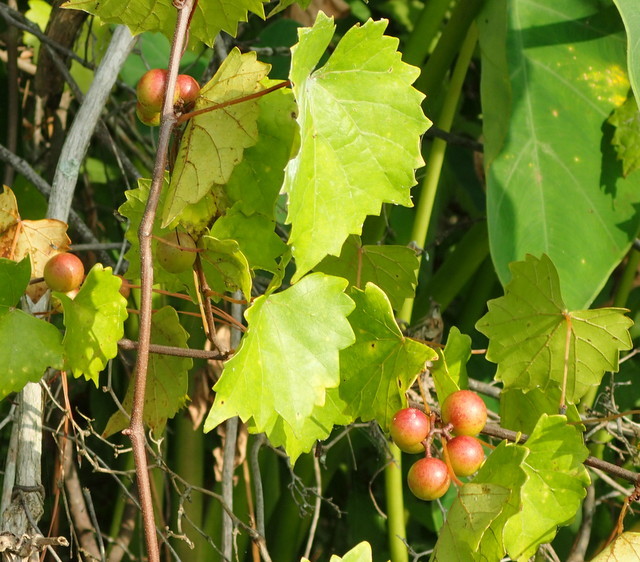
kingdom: Plantae
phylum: Tracheophyta
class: Magnoliopsida
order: Vitales
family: Vitaceae
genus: Vitis
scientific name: Vitis rotundifolia
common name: Muscadine grape
